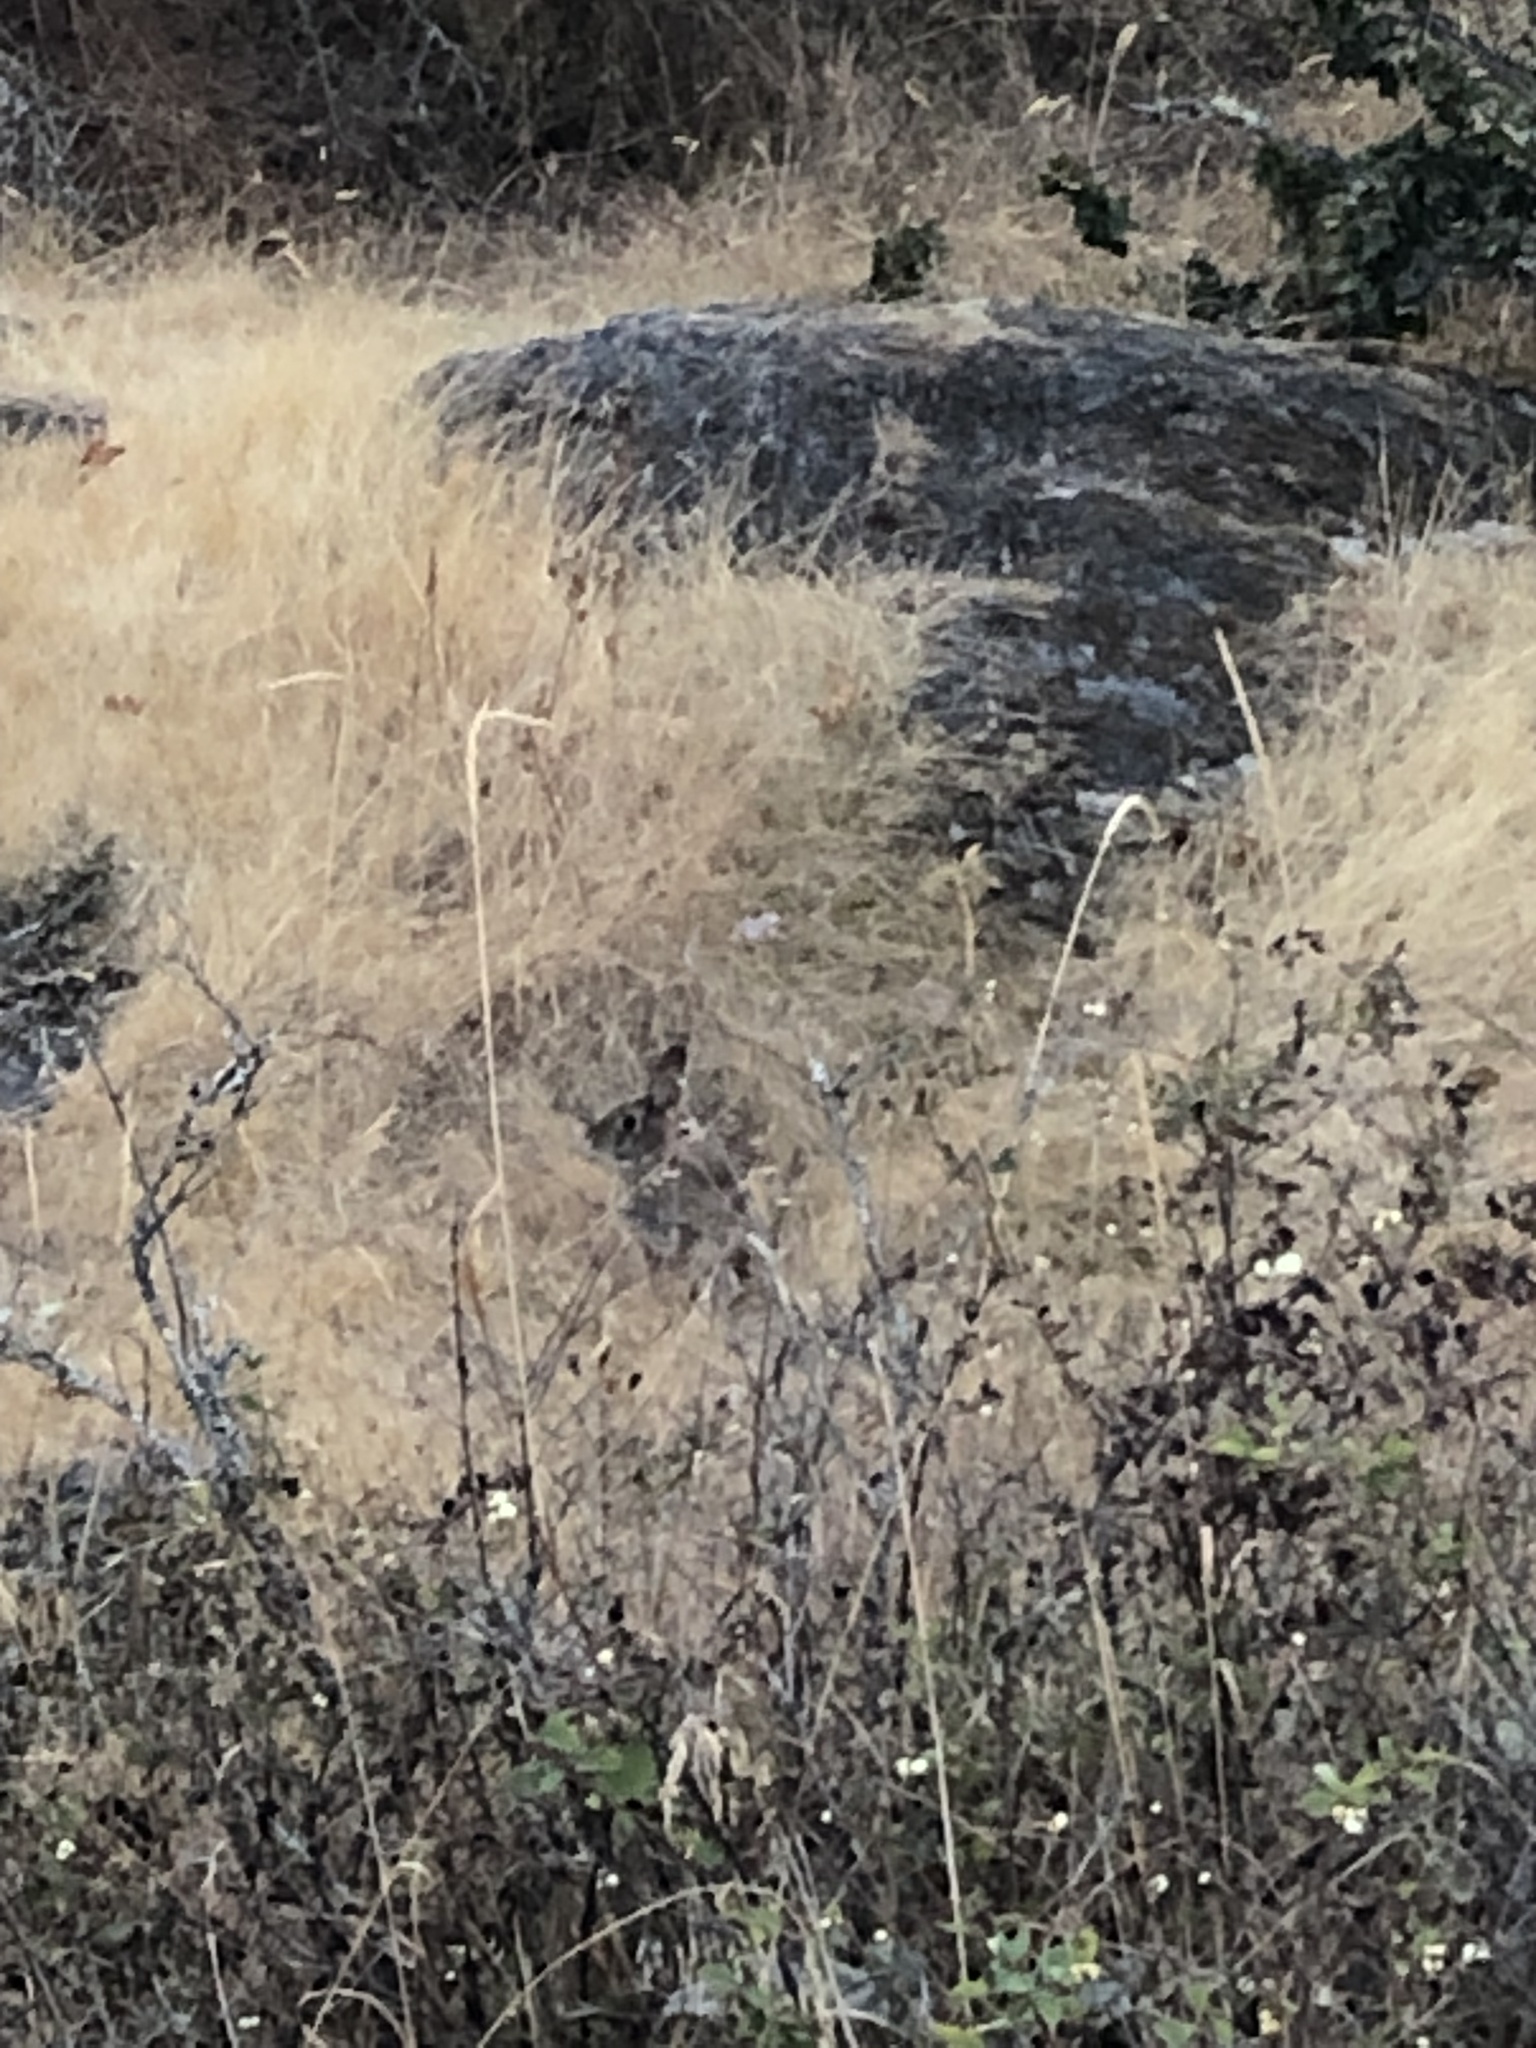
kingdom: Animalia
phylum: Chordata
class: Mammalia
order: Lagomorpha
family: Leporidae
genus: Sylvilagus
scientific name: Sylvilagus floridanus
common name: Eastern cottontail
